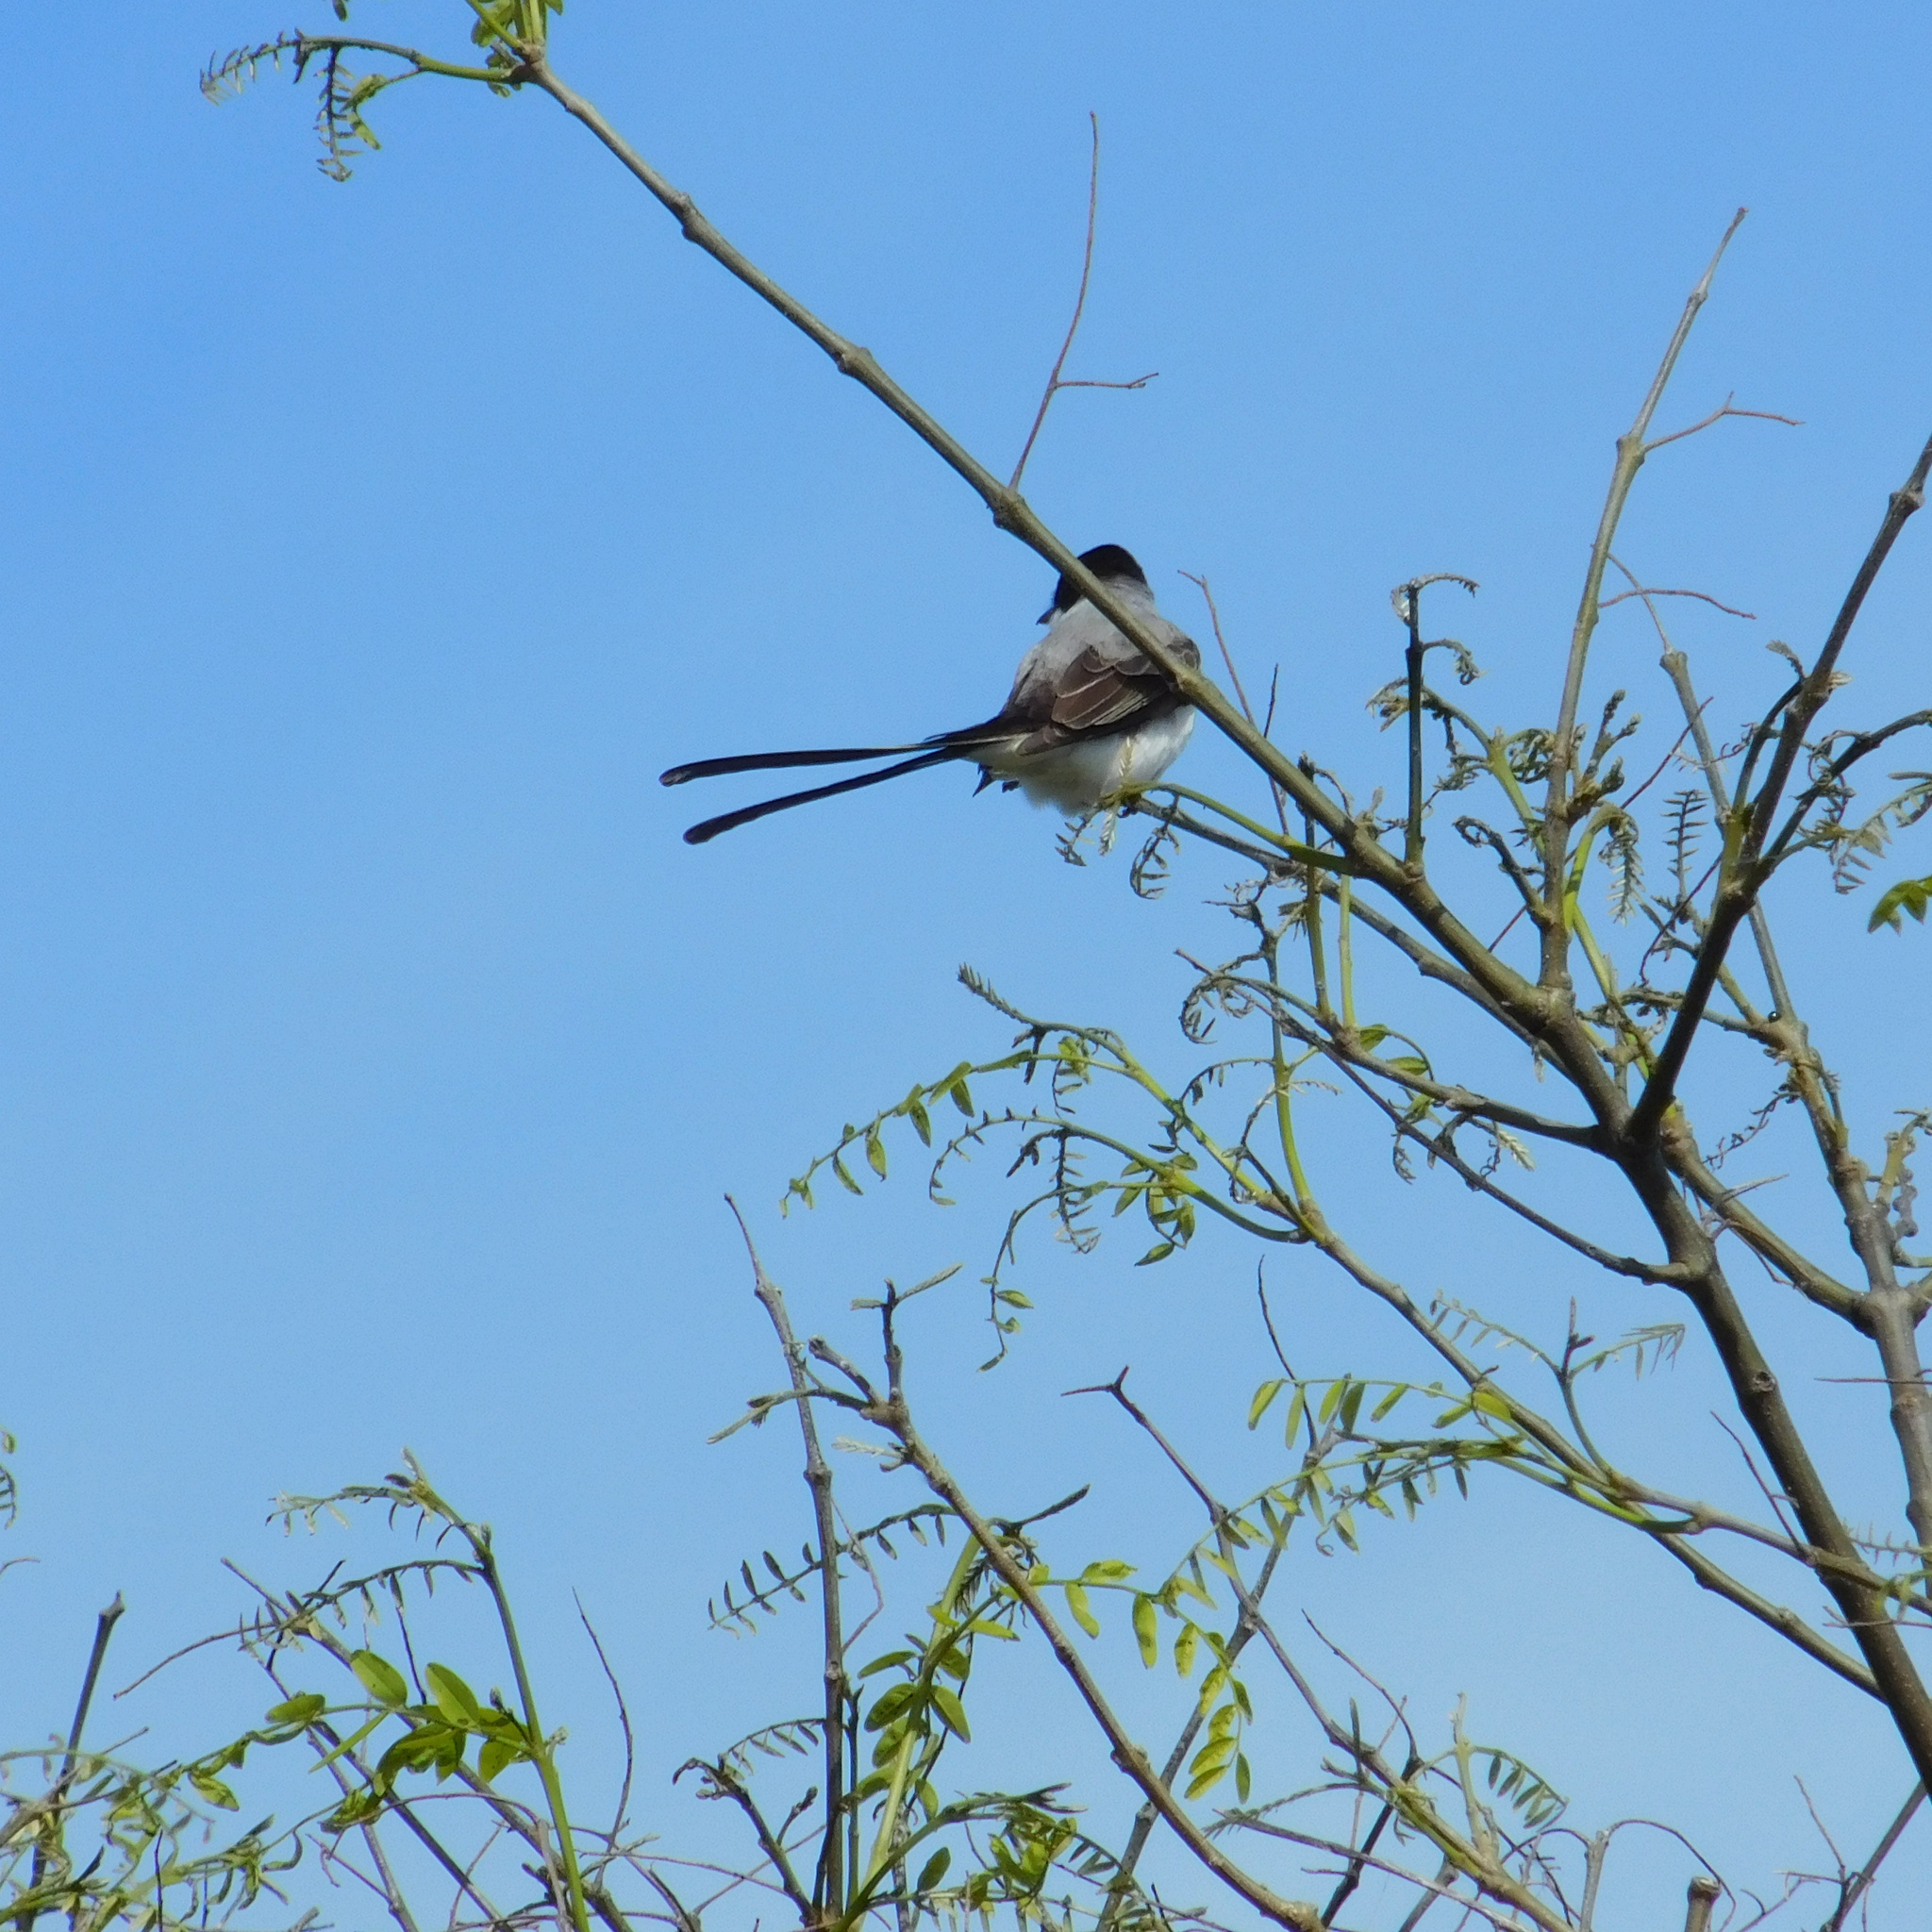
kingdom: Animalia
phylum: Chordata
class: Aves
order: Passeriformes
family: Tyrannidae
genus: Tyrannus
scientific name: Tyrannus savana
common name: Fork-tailed flycatcher
